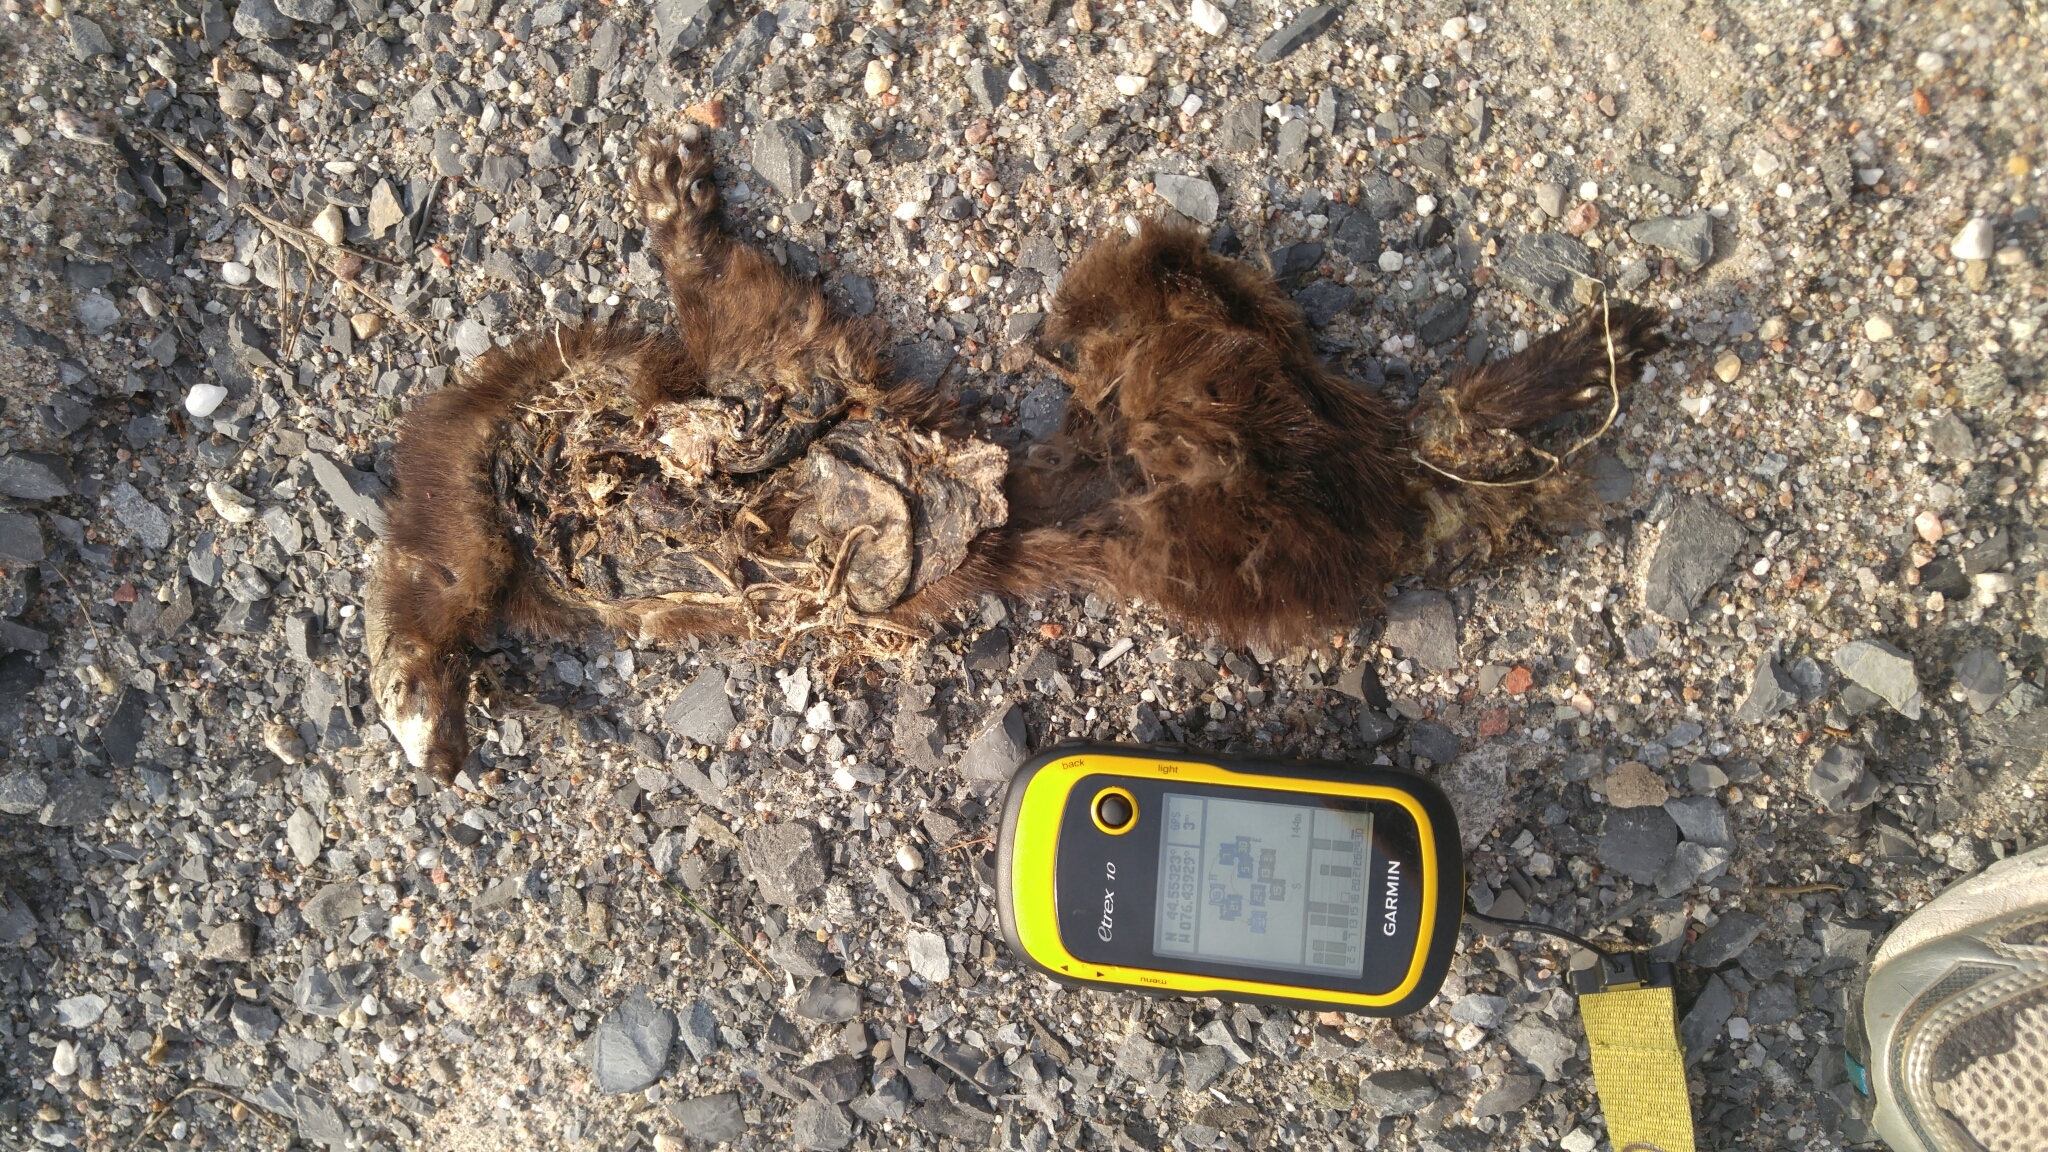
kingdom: Animalia
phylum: Chordata
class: Mammalia
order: Carnivora
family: Mustelidae
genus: Mustela
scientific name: Mustela
